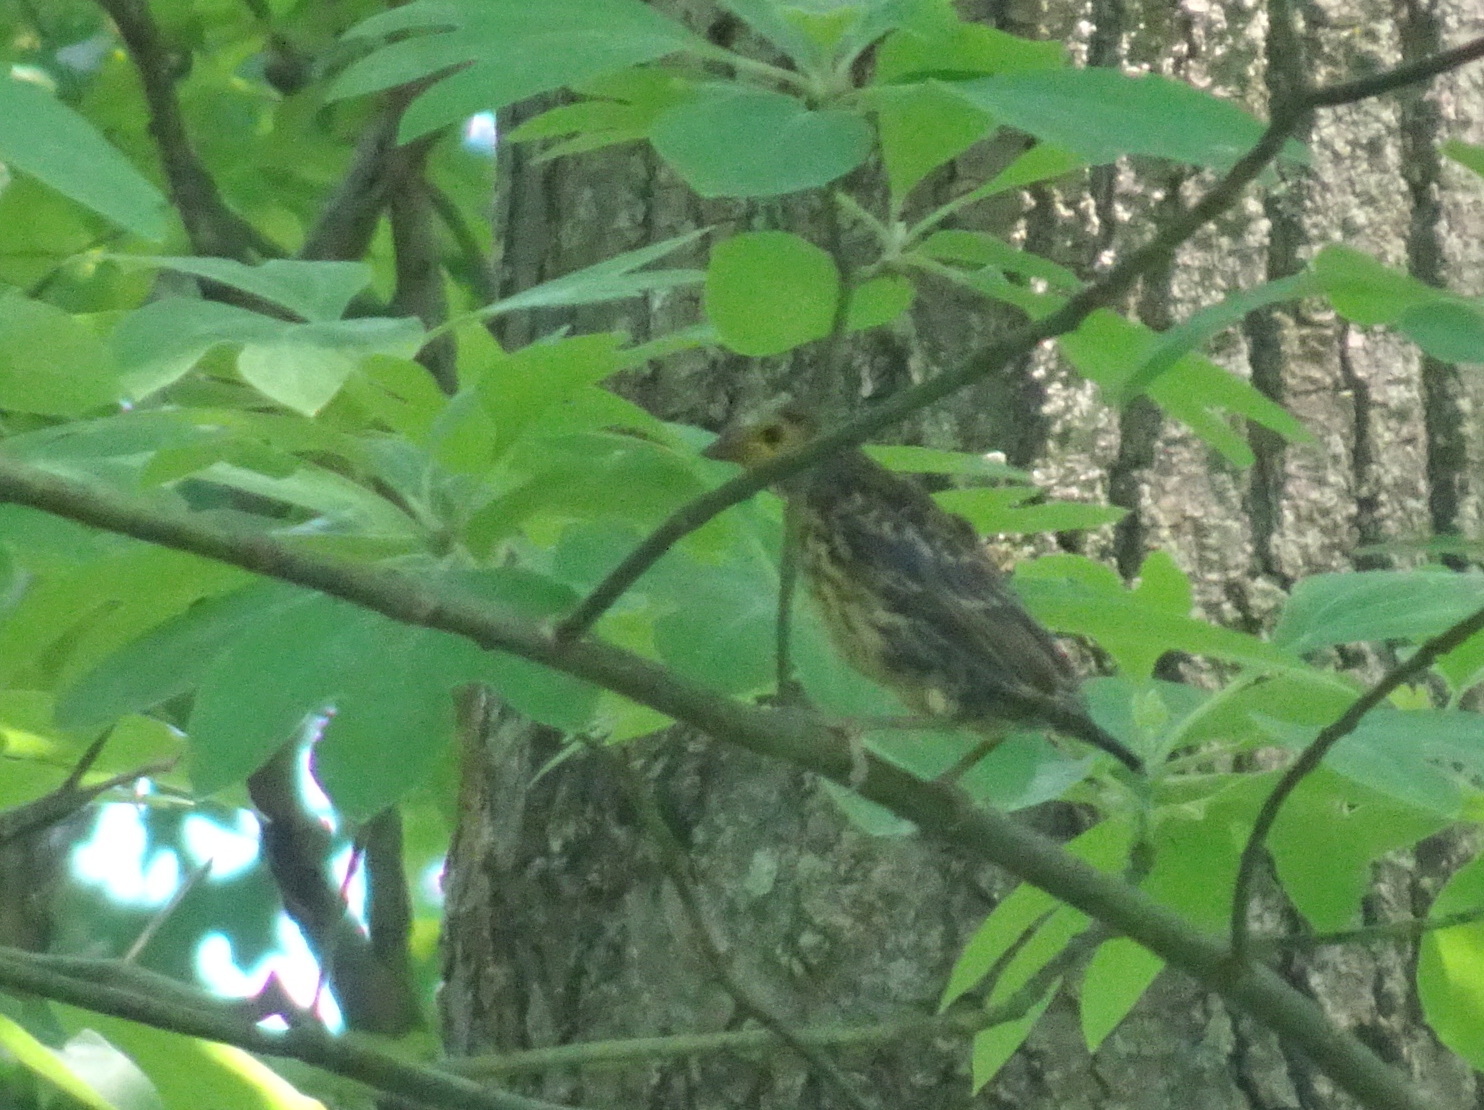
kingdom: Animalia
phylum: Chordata
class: Aves
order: Passeriformes
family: Icteridae
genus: Agelaius
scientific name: Agelaius phoeniceus
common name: Red-winged blackbird
